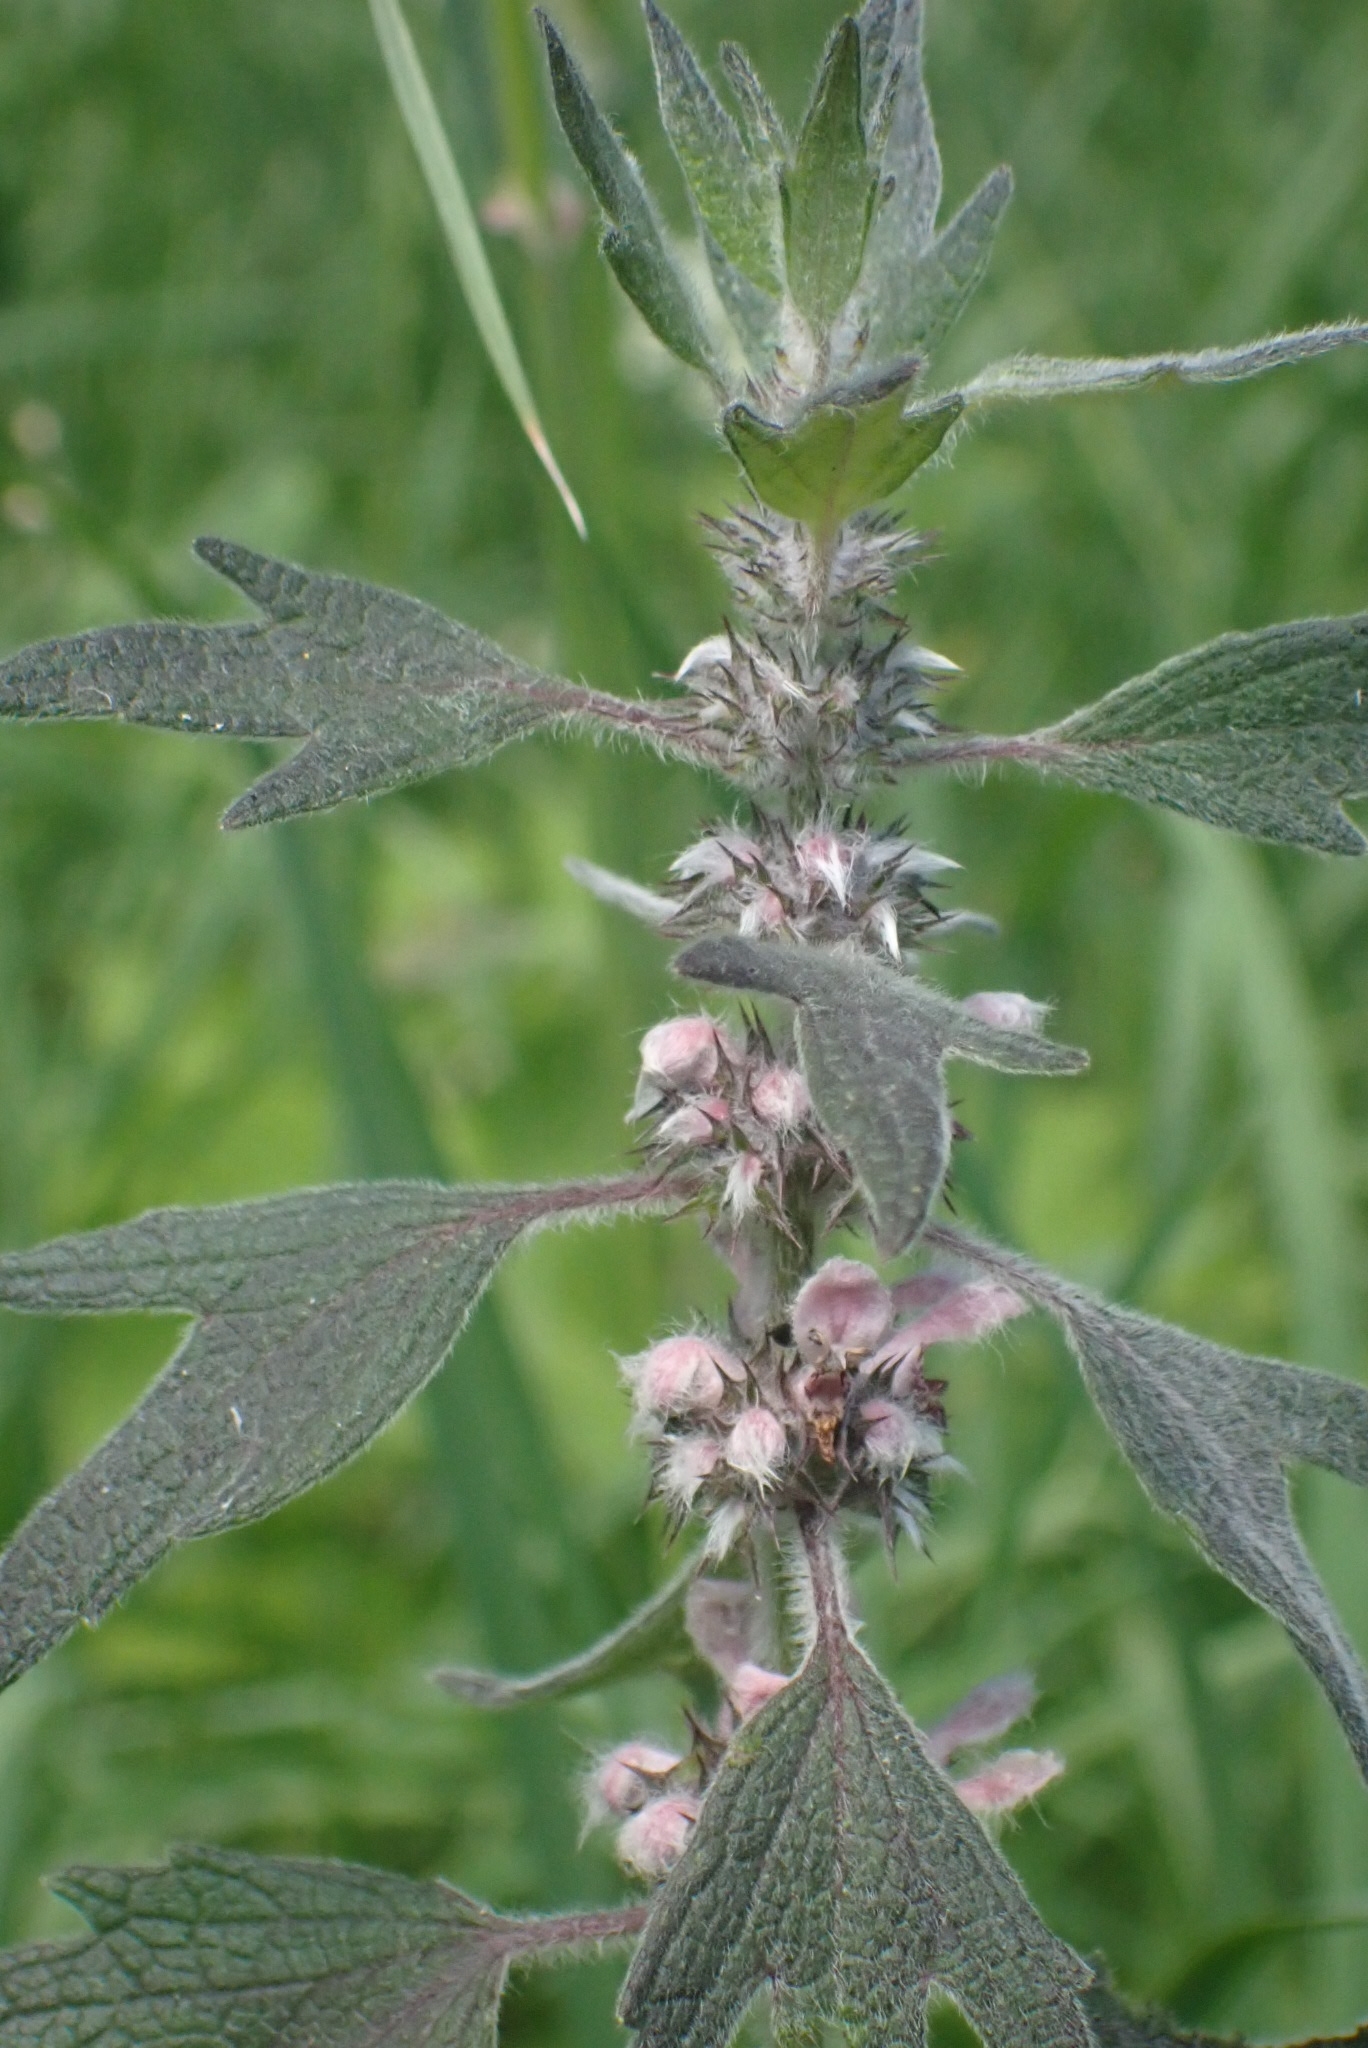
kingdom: Plantae
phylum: Tracheophyta
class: Magnoliopsida
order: Lamiales
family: Lamiaceae
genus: Leonurus
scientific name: Leonurus quinquelobatus
